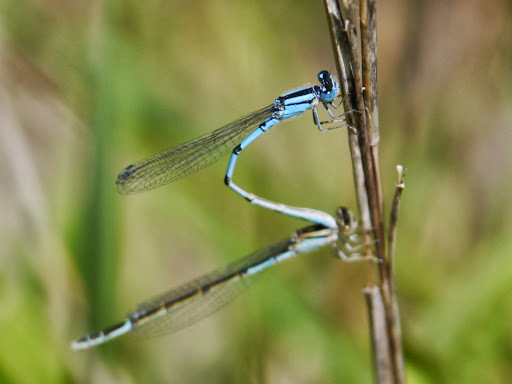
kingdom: Animalia
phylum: Arthropoda
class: Insecta
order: Odonata
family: Coenagrionidae
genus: Enallagma
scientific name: Enallagma civile
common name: Damselfly
